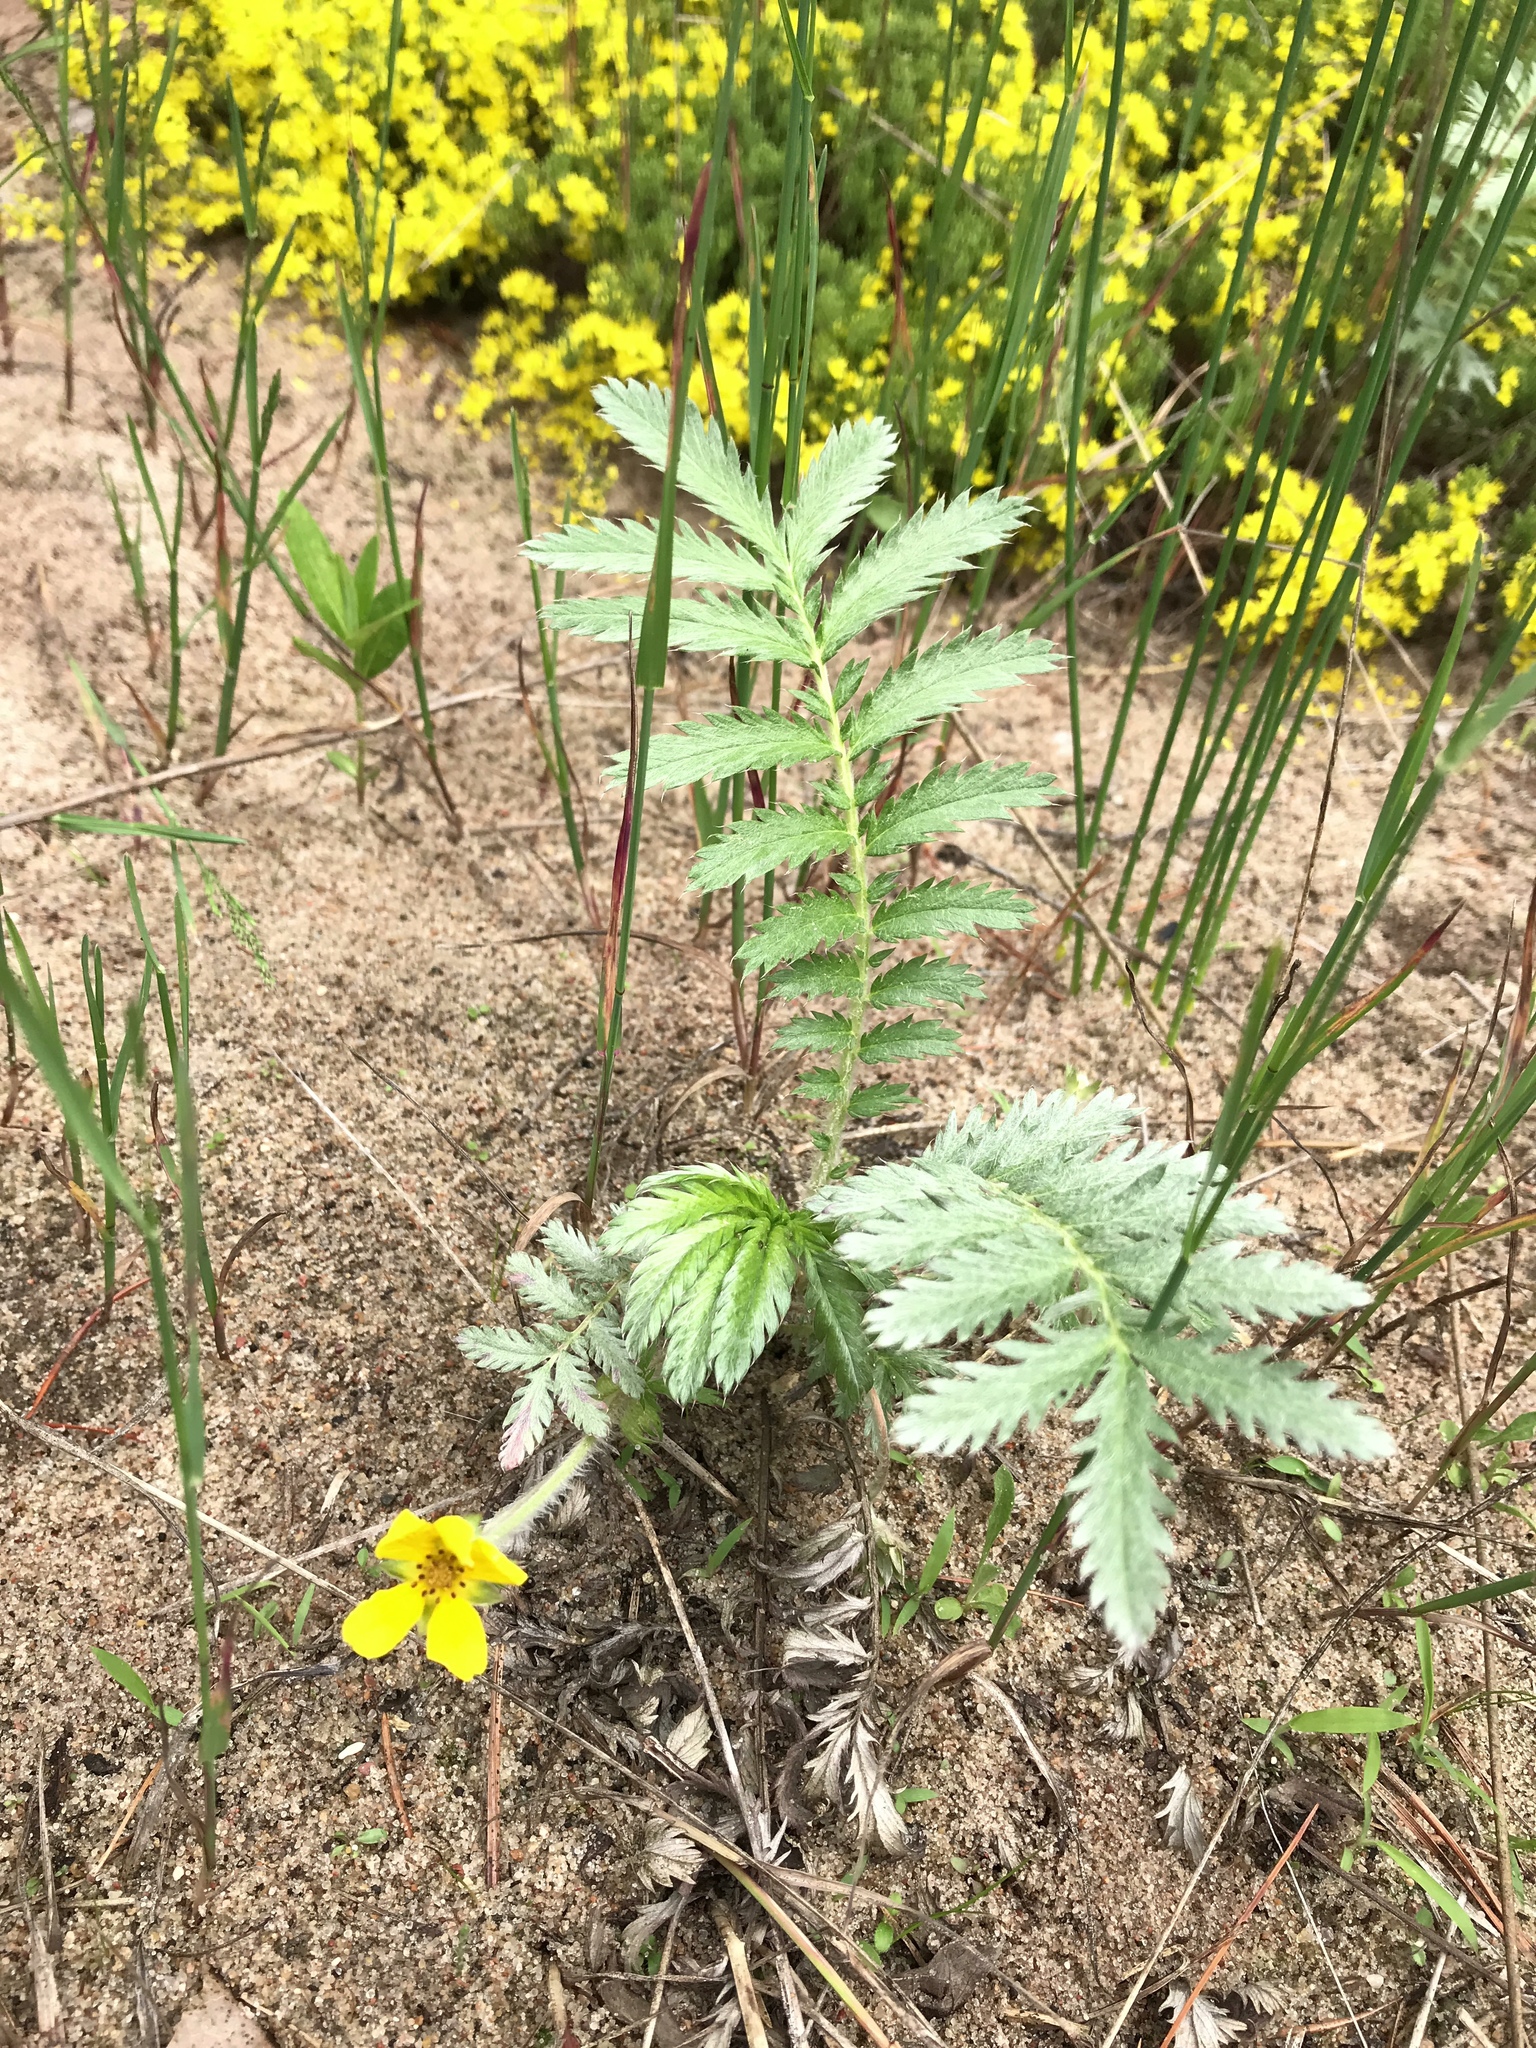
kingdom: Plantae
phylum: Tracheophyta
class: Magnoliopsida
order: Rosales
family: Rosaceae
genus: Argentina
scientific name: Argentina anserina
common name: Common silverweed
